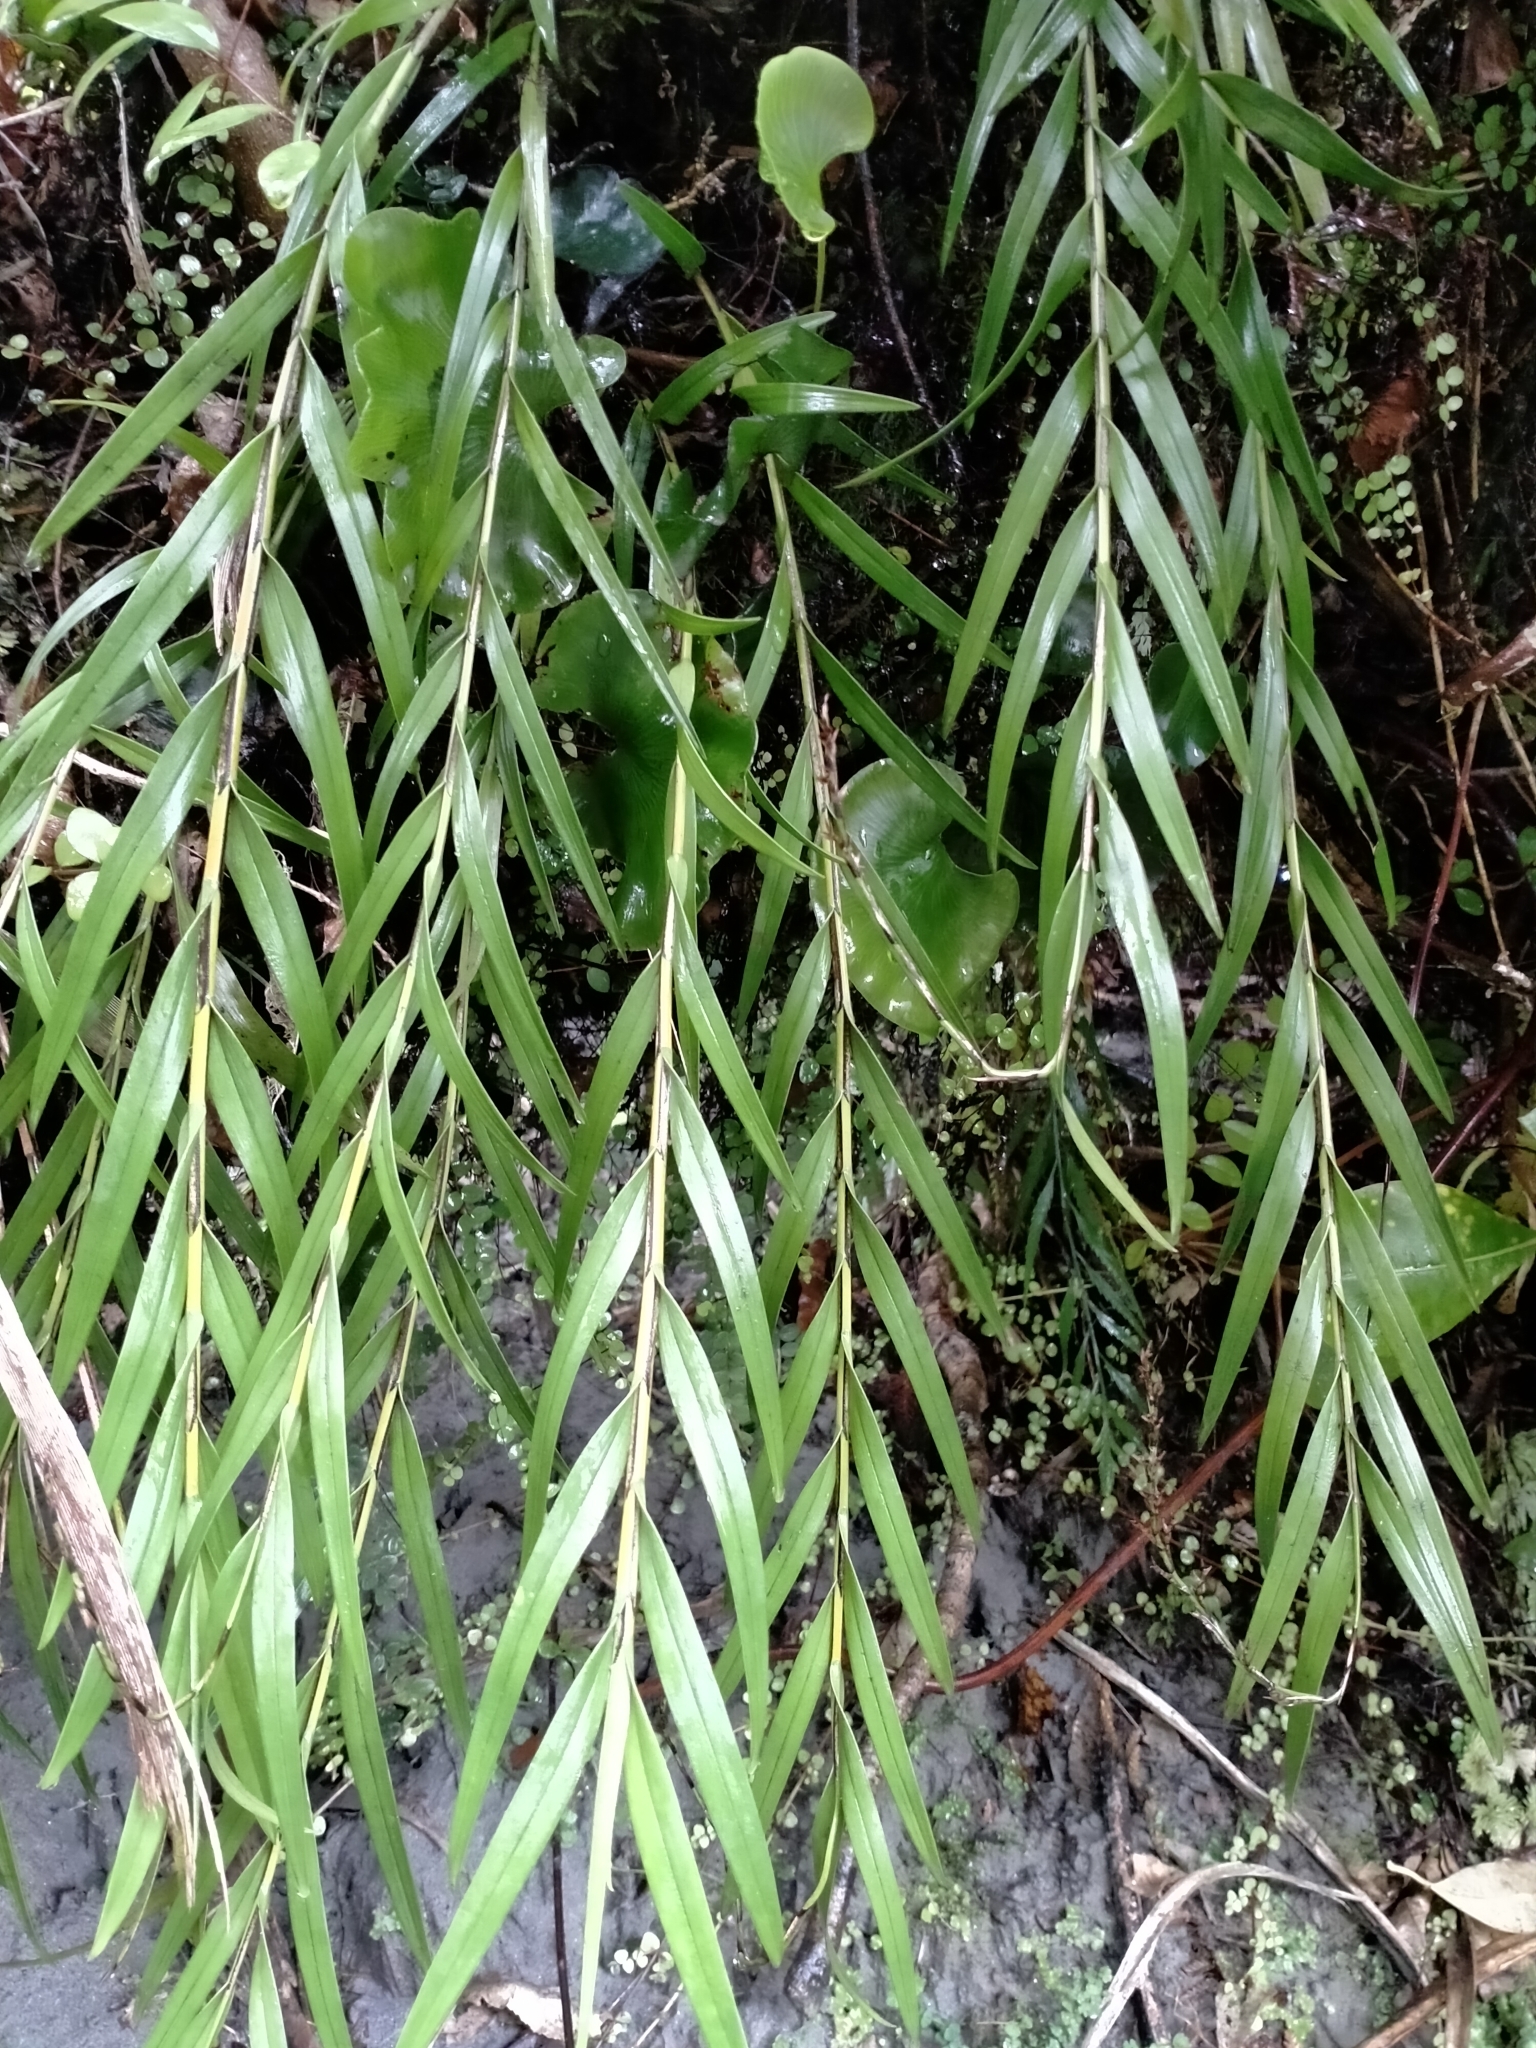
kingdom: Plantae
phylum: Tracheophyta
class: Liliopsida
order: Asparagales
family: Orchidaceae
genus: Earina
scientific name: Earina autumnalis
